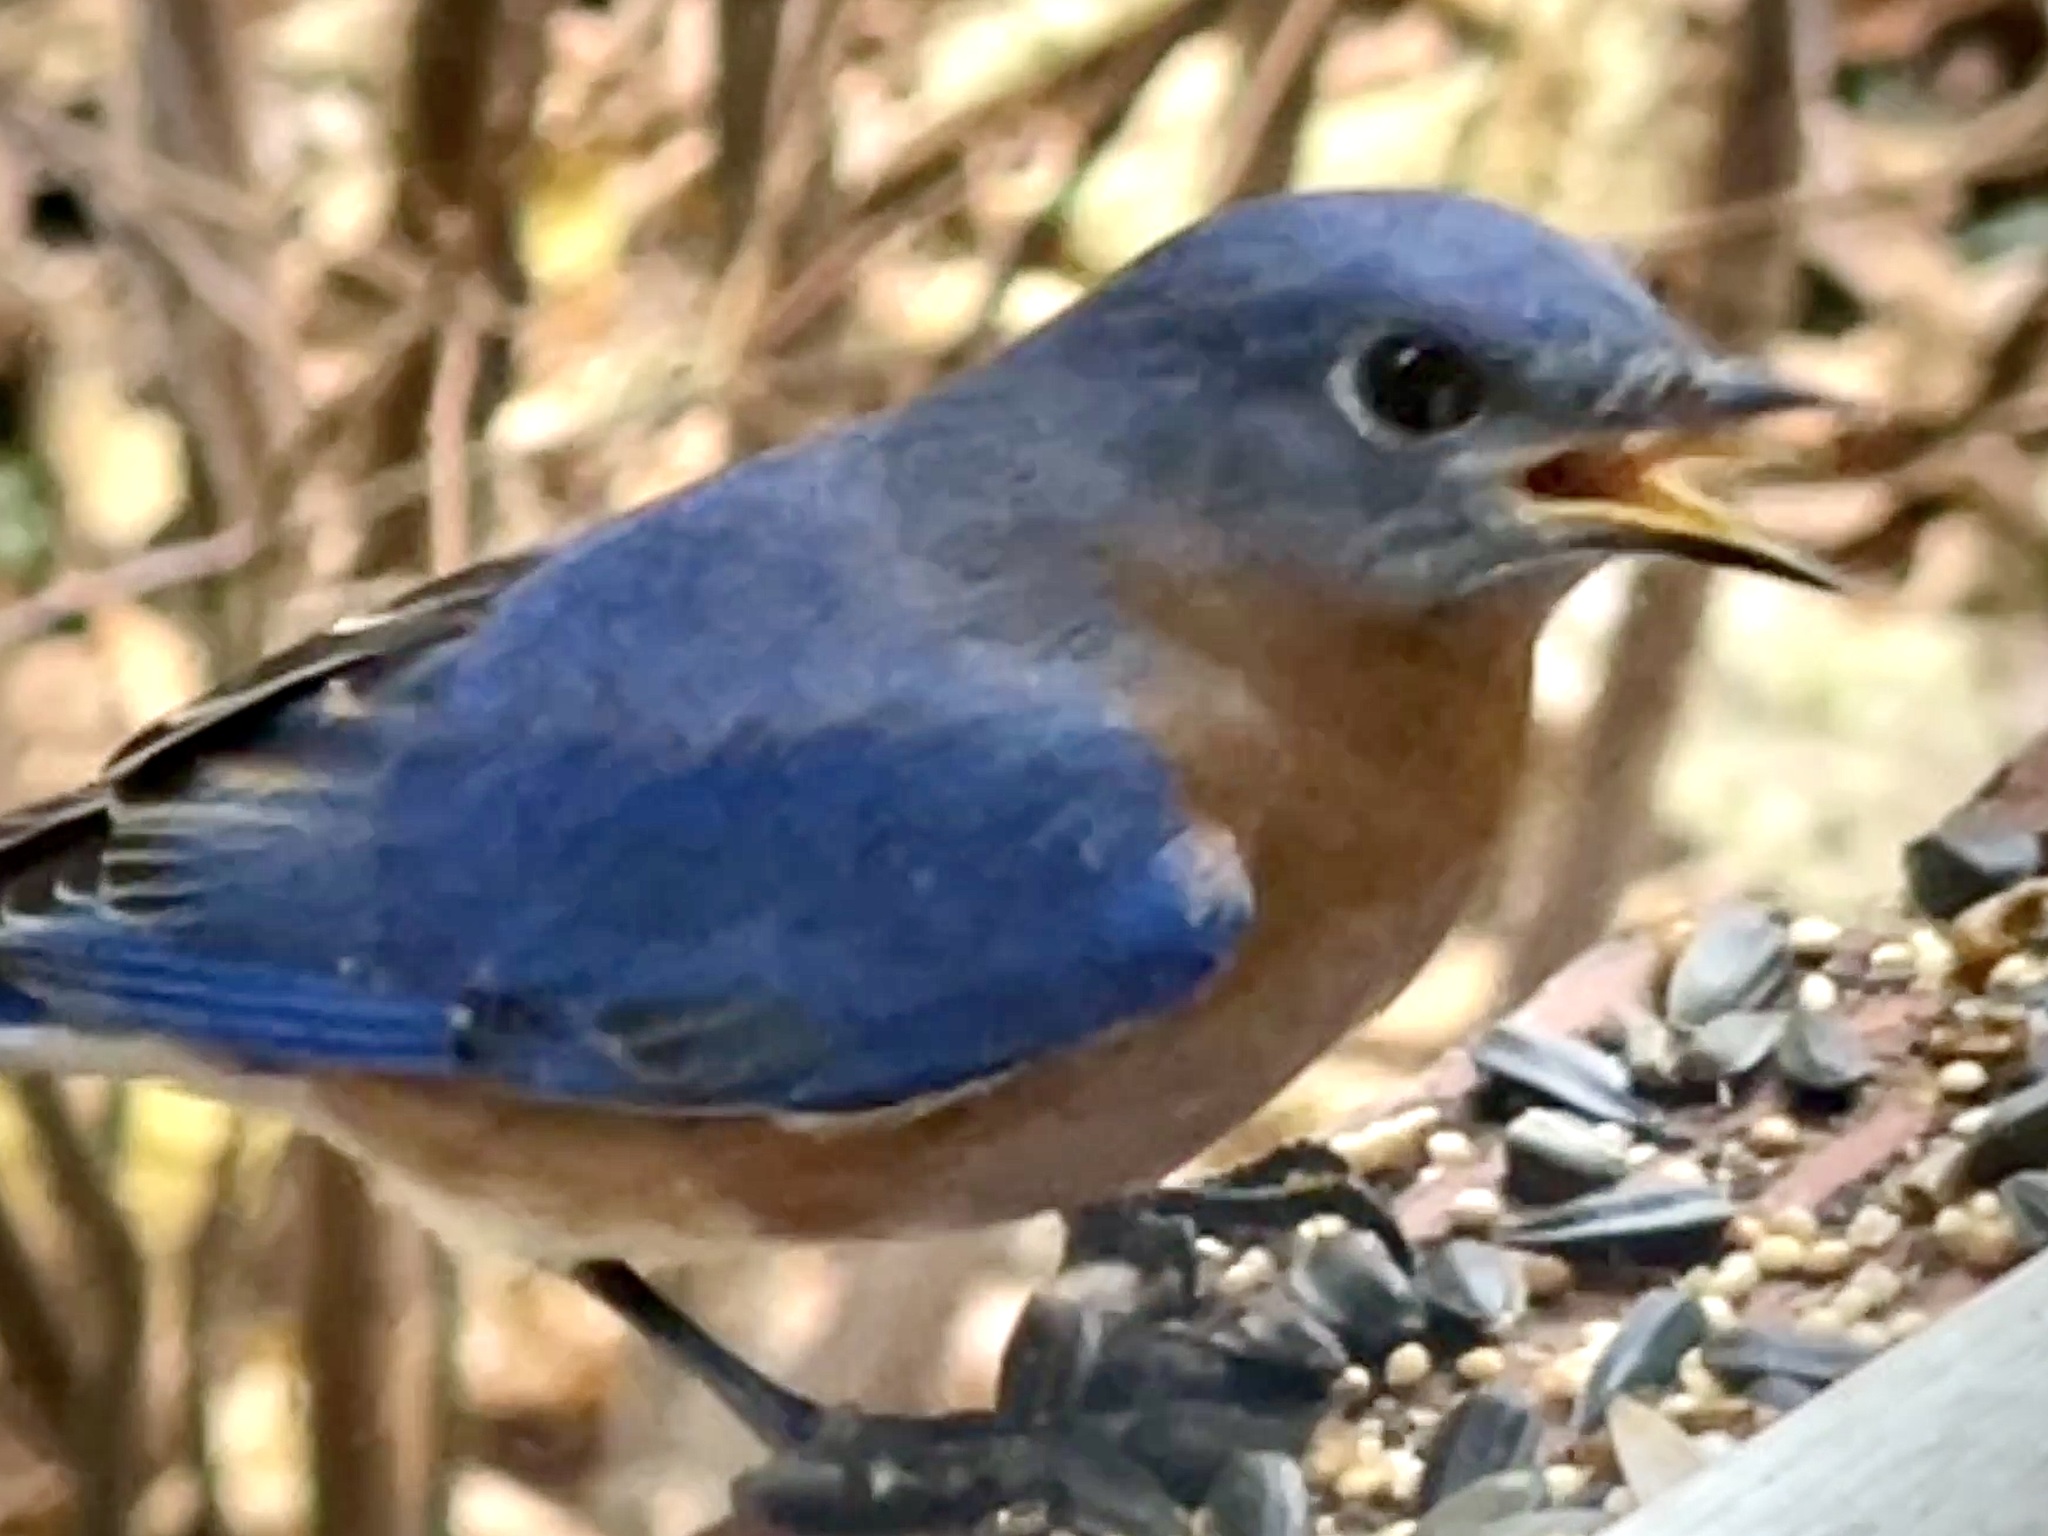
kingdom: Animalia
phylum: Chordata
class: Aves
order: Passeriformes
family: Turdidae
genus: Sialia
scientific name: Sialia sialis
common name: Eastern bluebird
